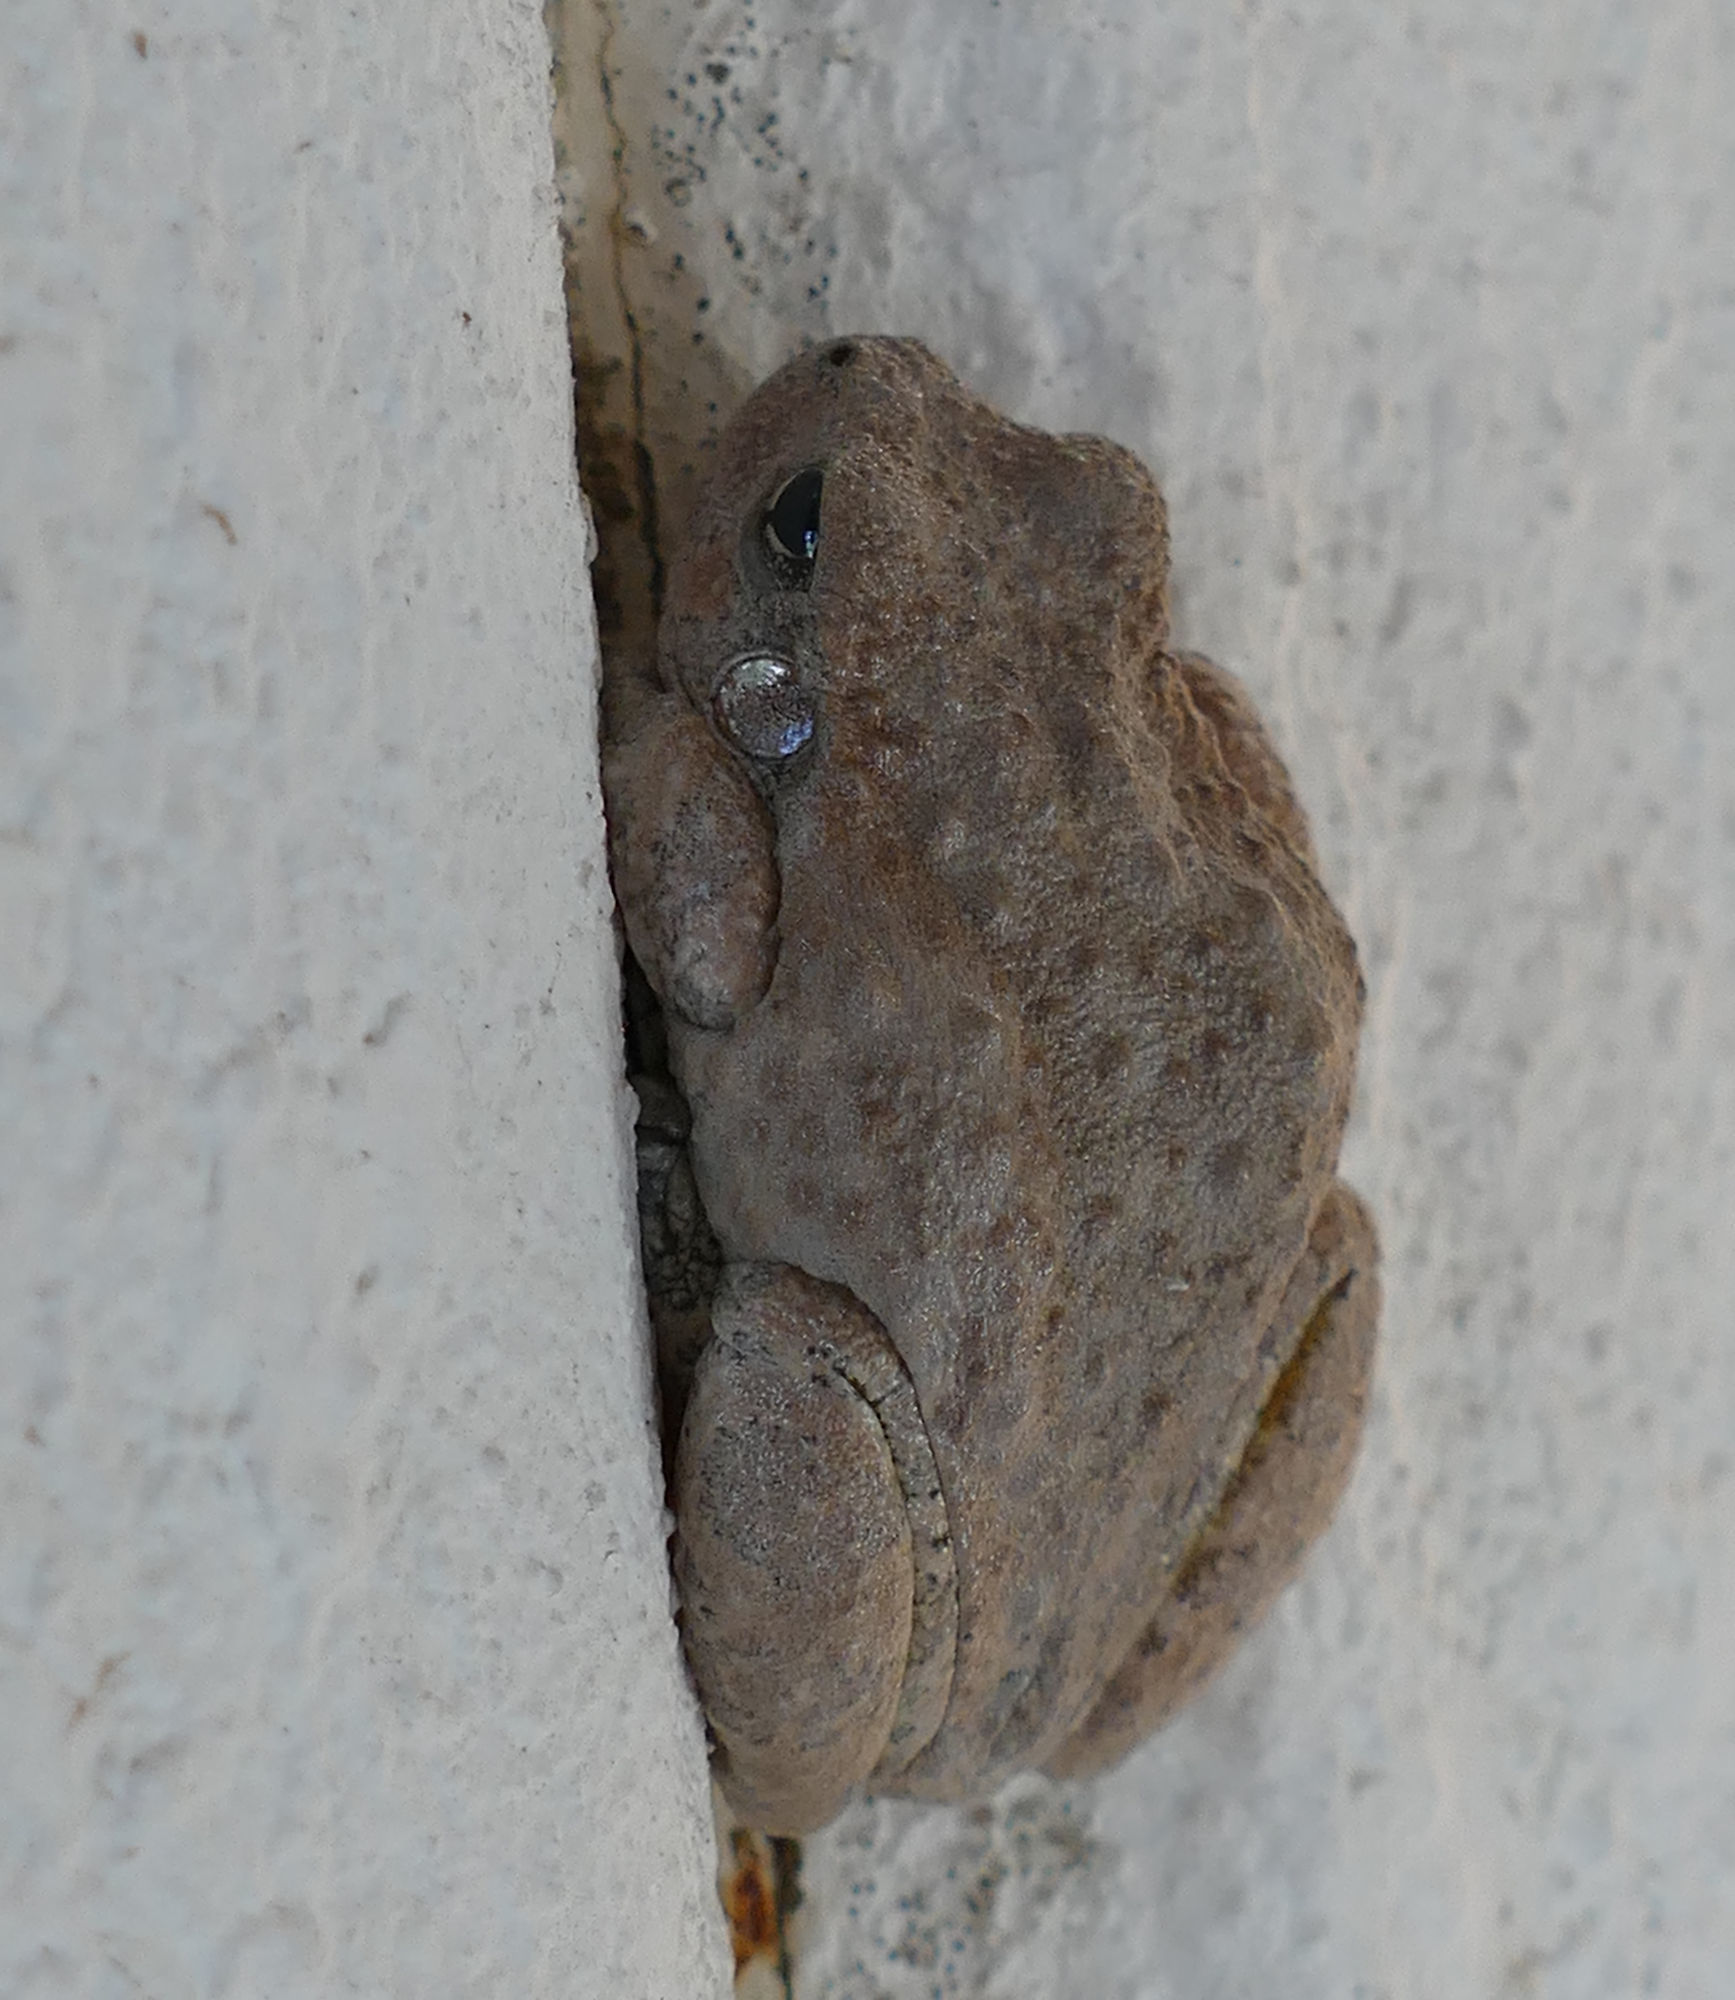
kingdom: Animalia
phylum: Chordata
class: Amphibia
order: Anura
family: Hylidae
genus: Dryophytes
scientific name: Dryophytes arenicolor
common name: Canyon treefrog
